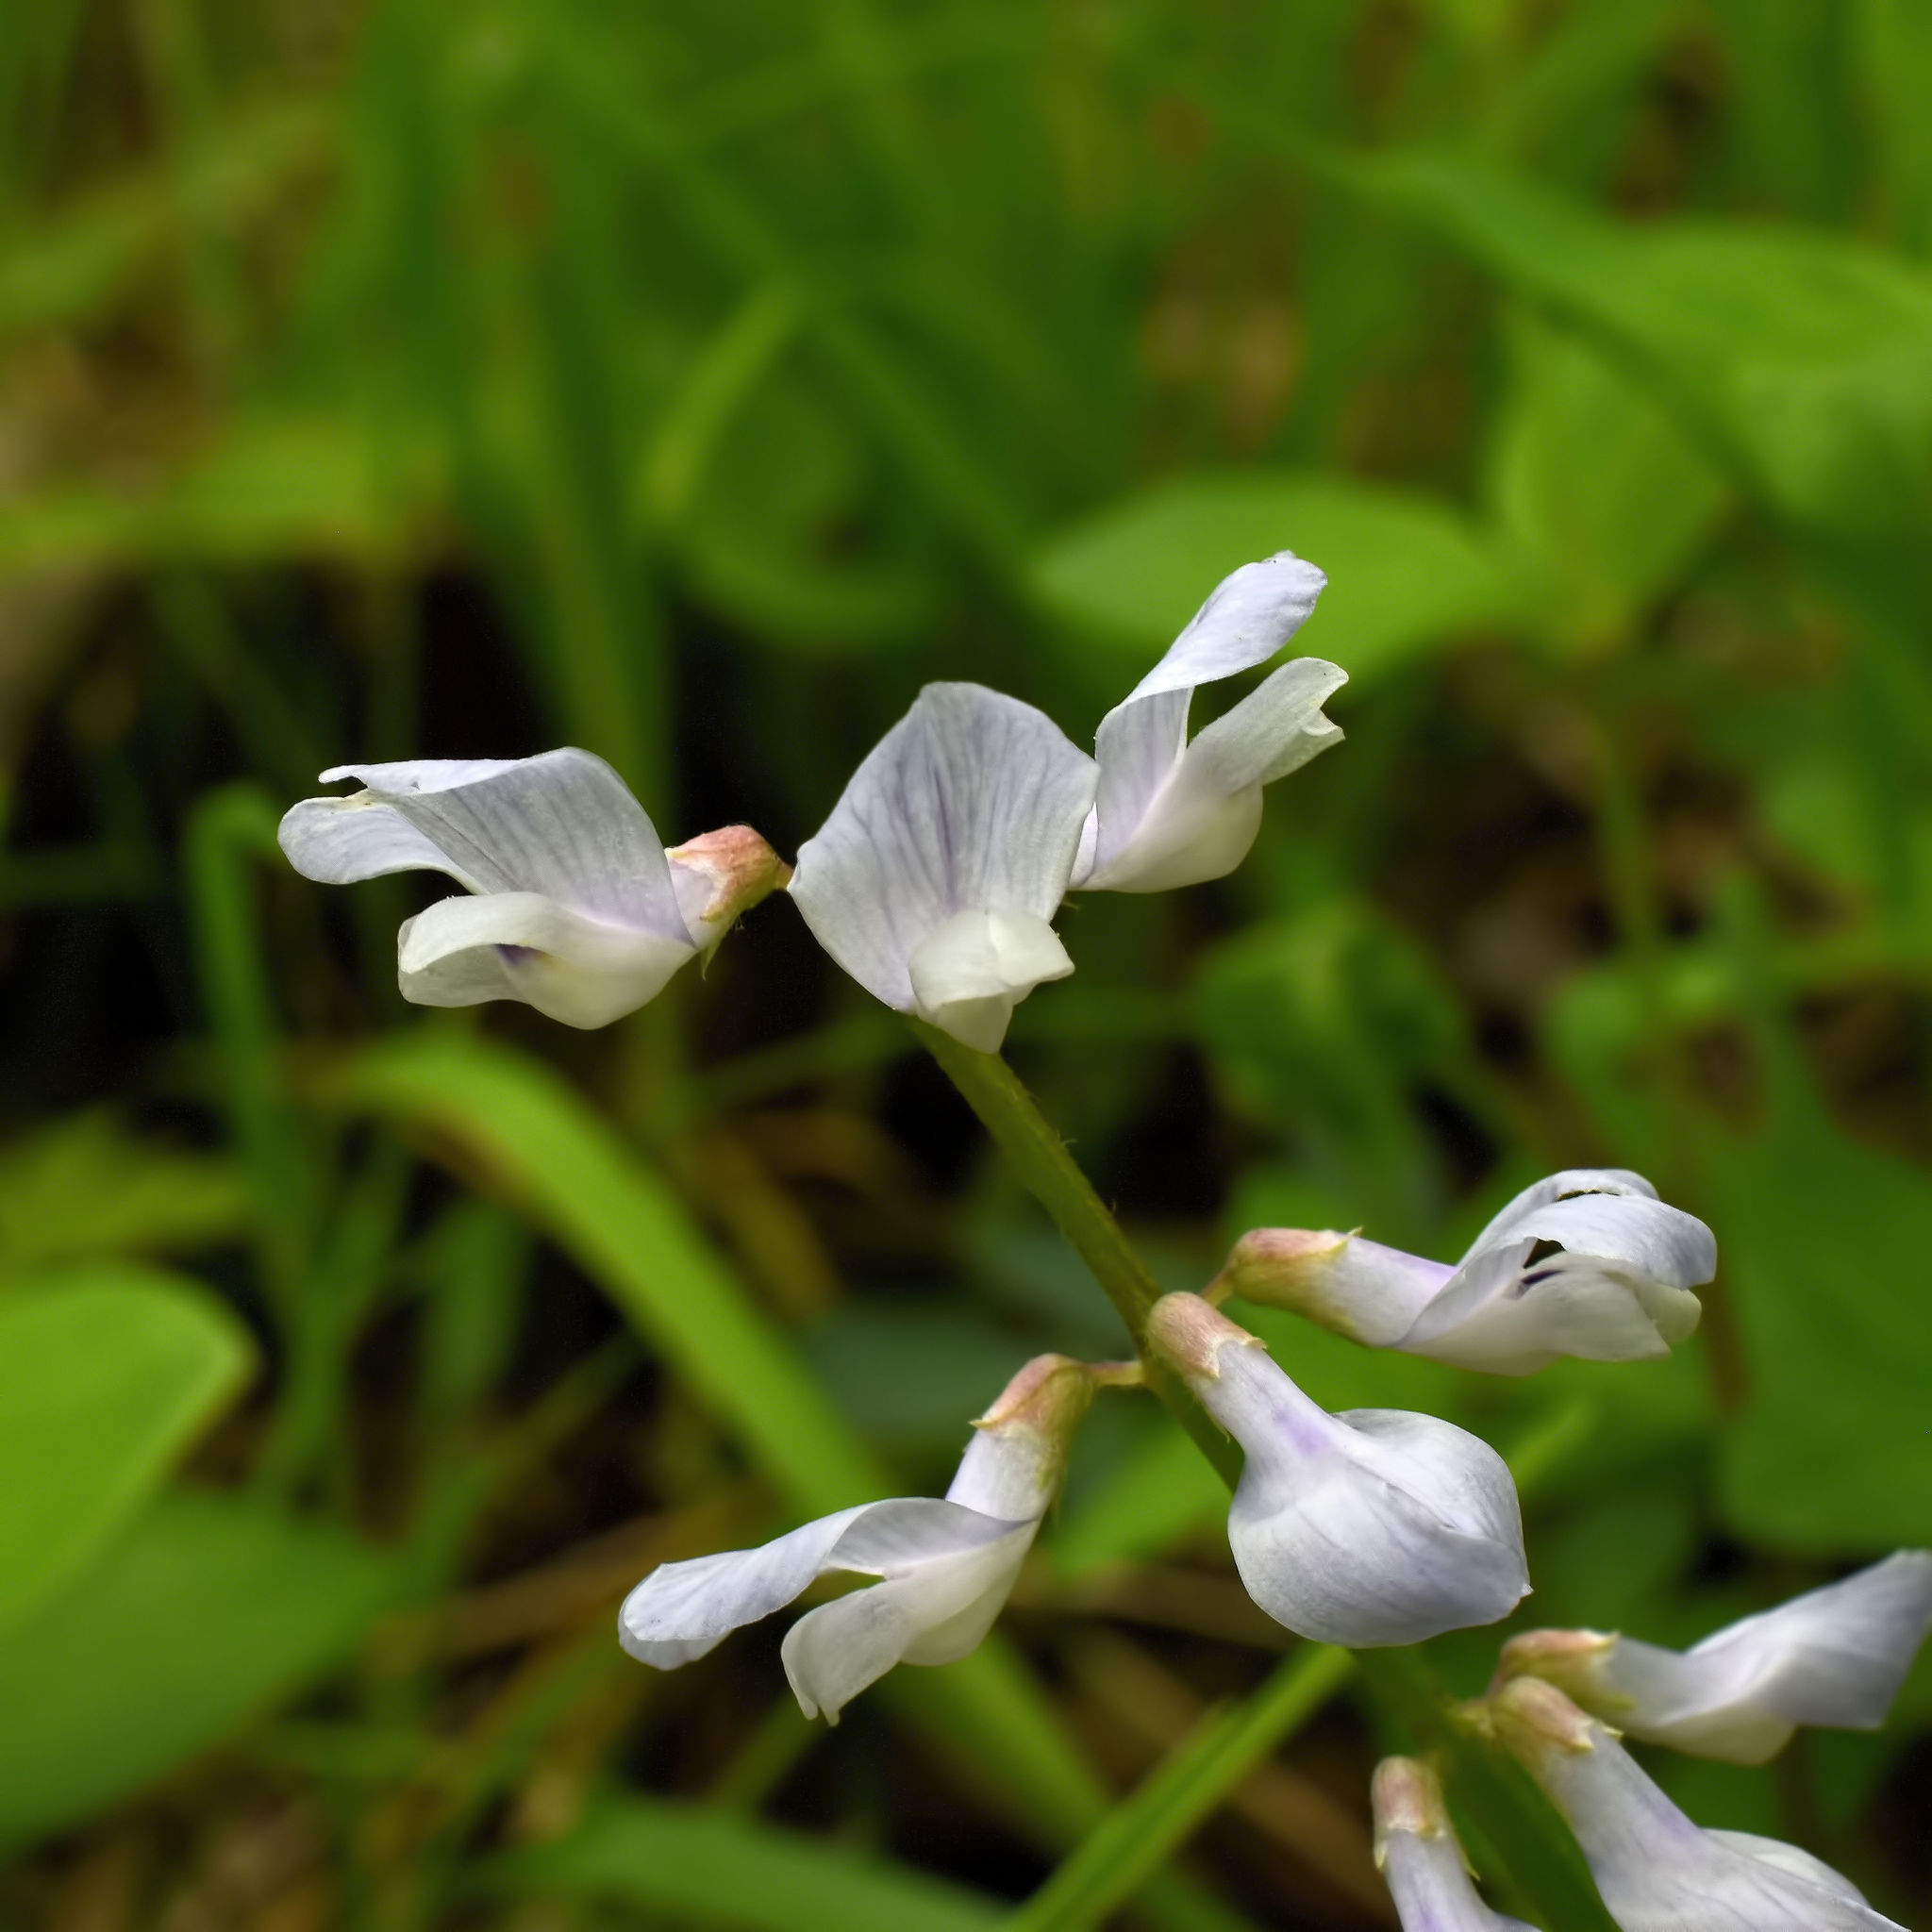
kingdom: Plantae
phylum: Tracheophyta
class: Magnoliopsida
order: Fabales
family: Fabaceae
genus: Vicia
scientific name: Vicia caroliniana
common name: Carolina vetch
